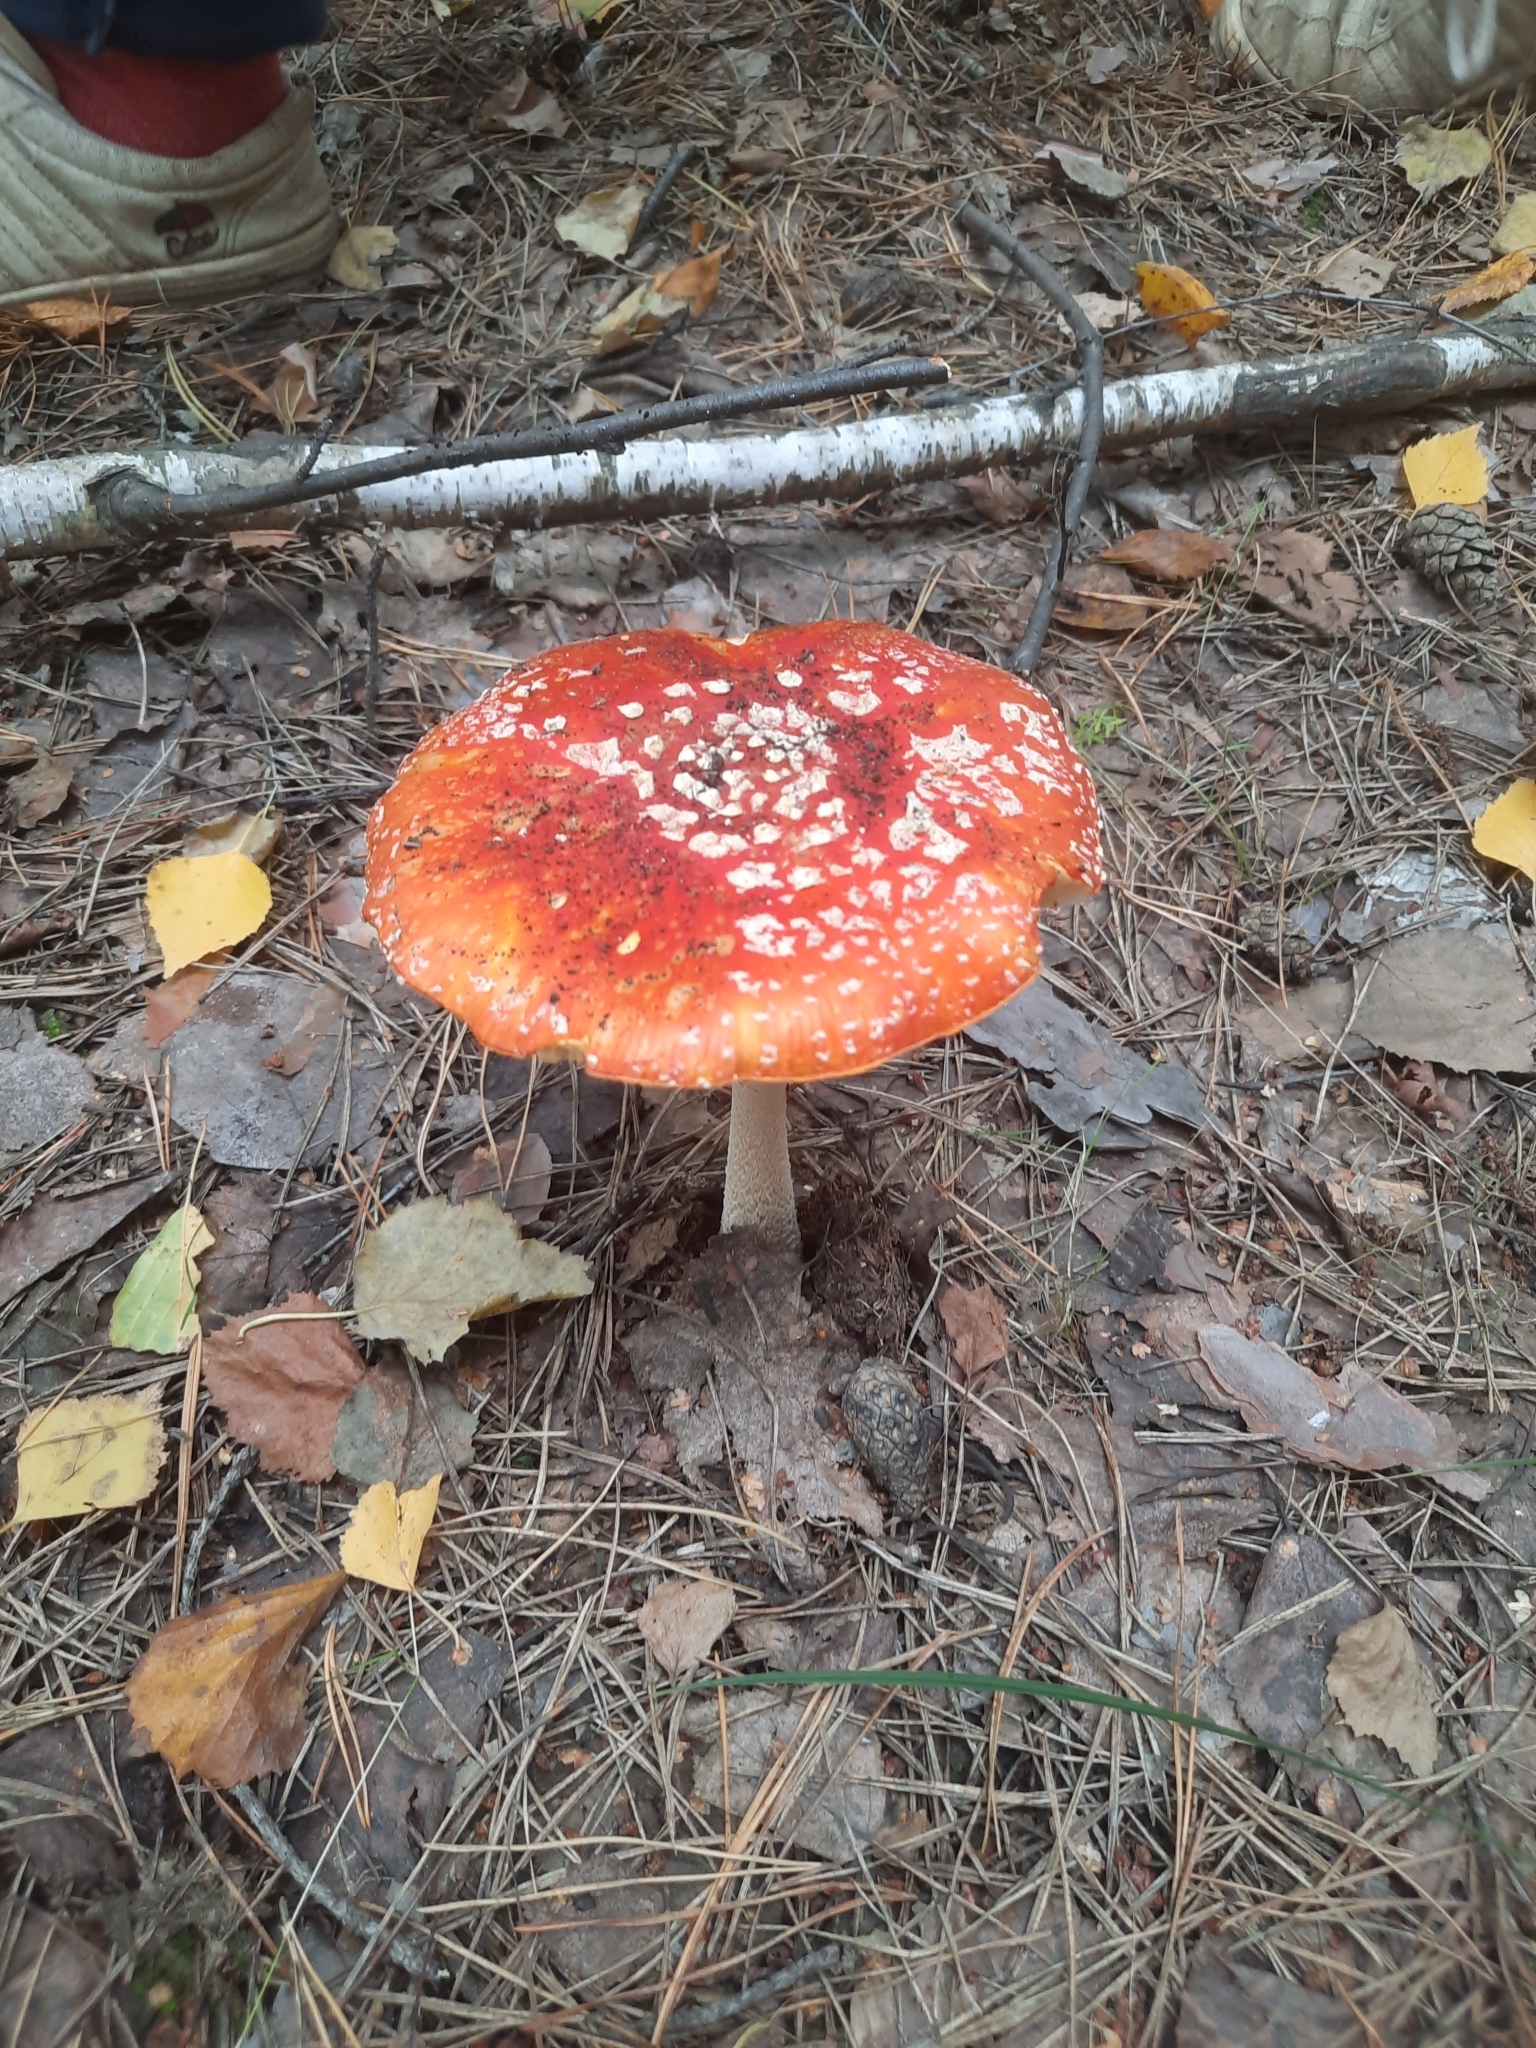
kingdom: Fungi
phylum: Basidiomycota
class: Agaricomycetes
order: Agaricales
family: Amanitaceae
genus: Amanita
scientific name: Amanita muscaria
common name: Fly agaric
